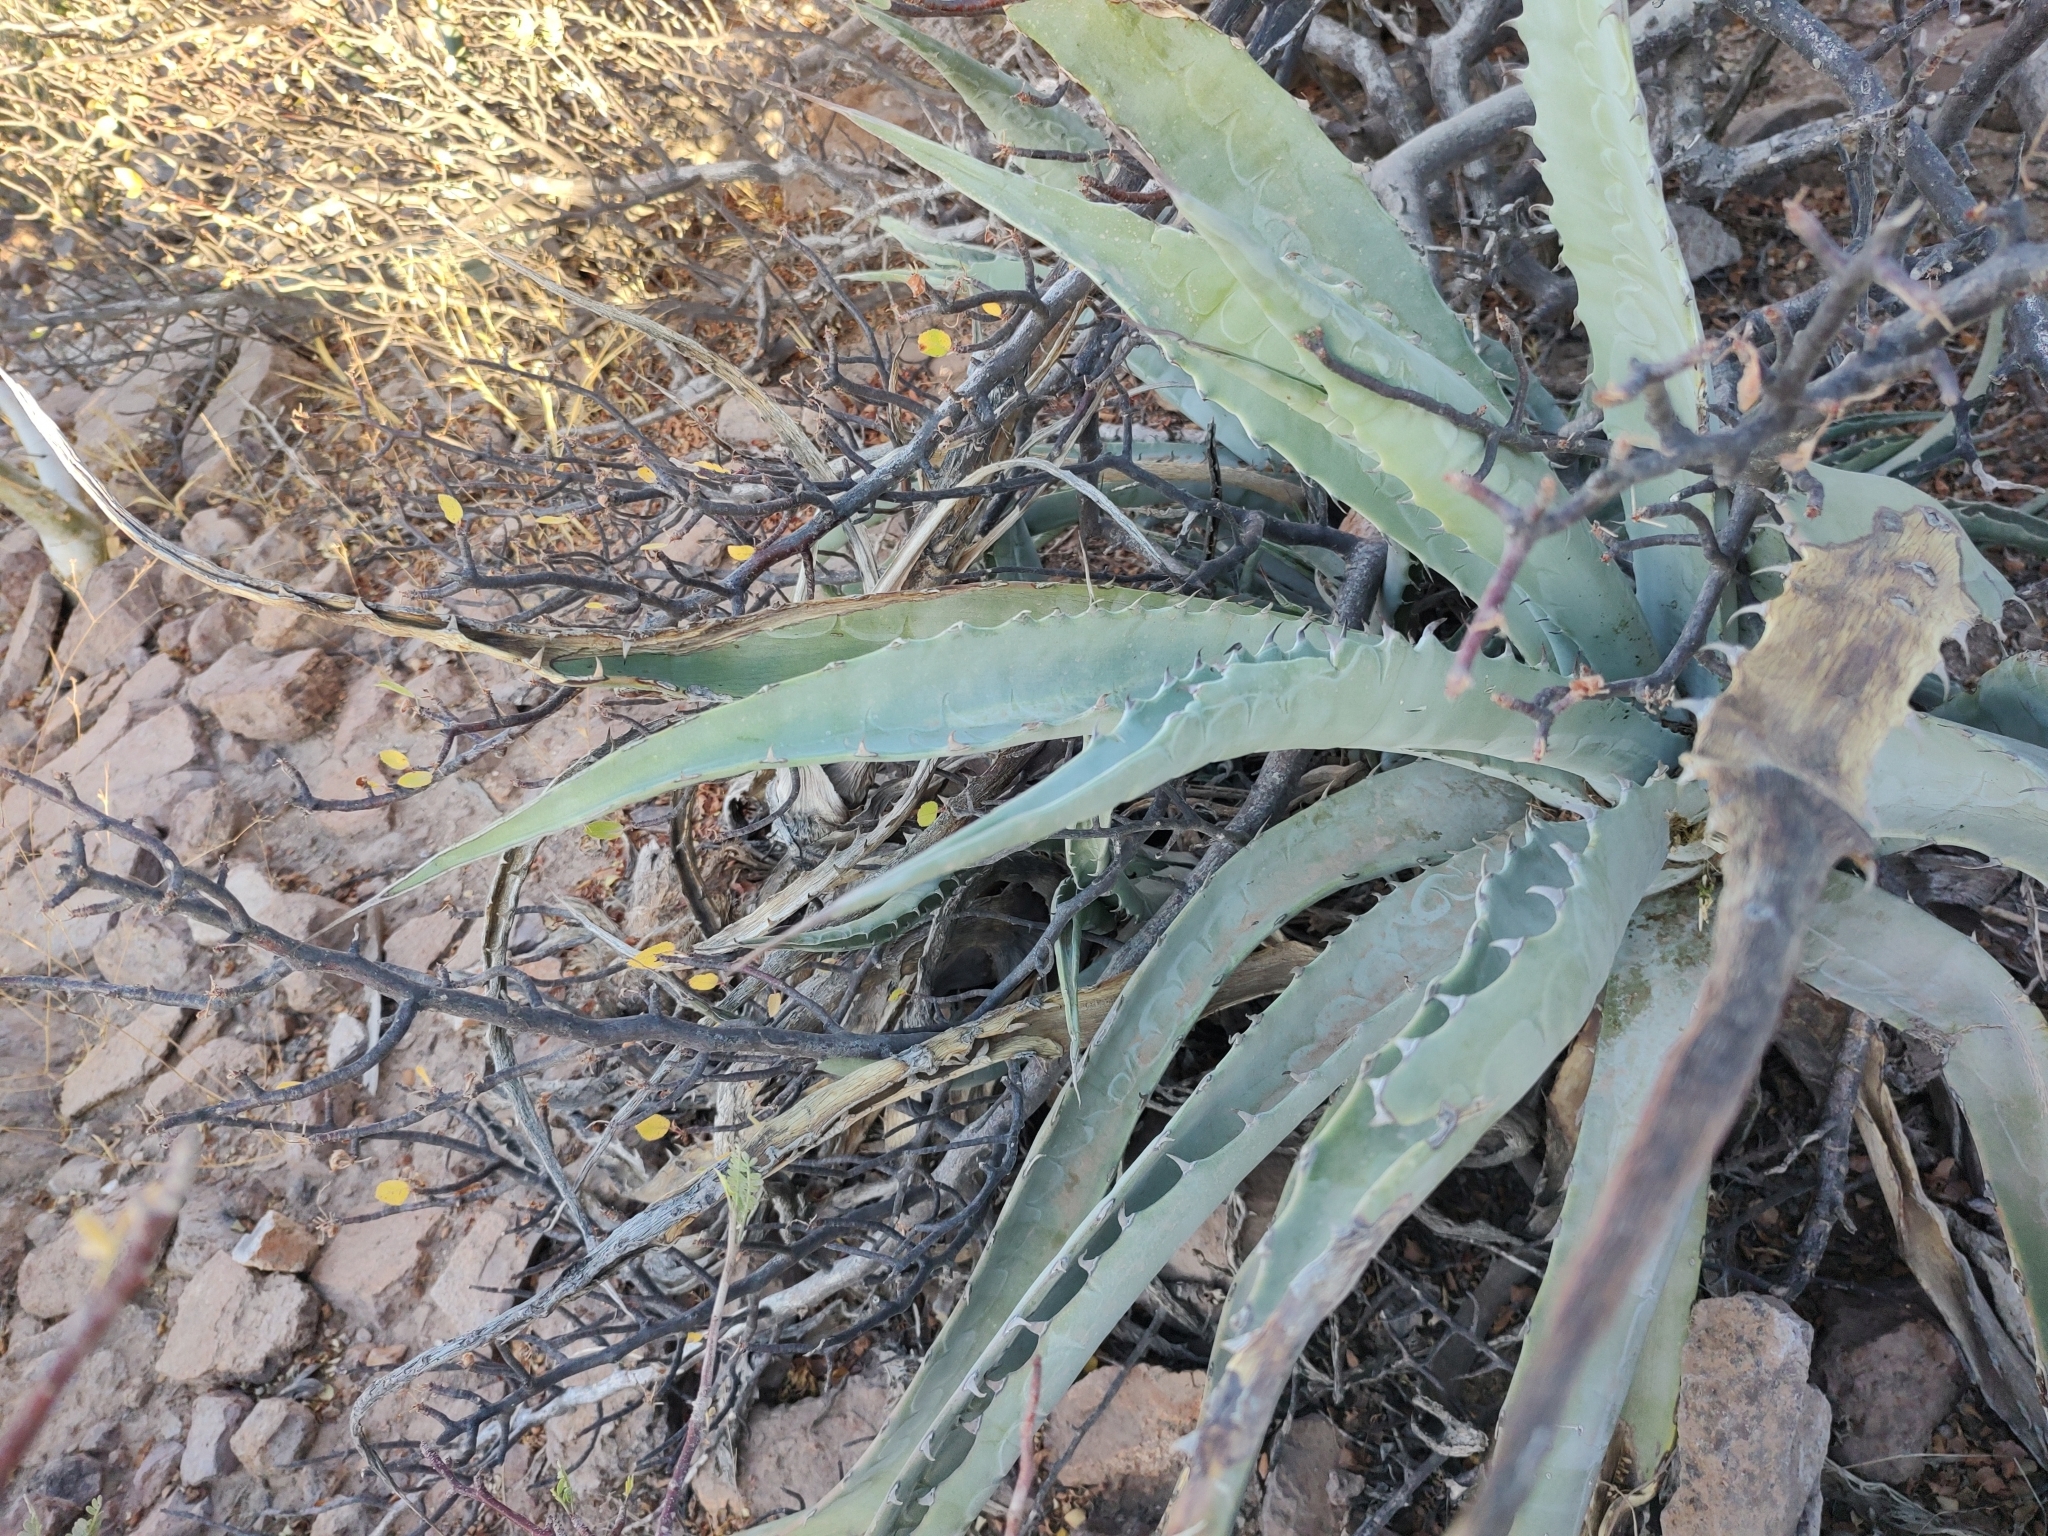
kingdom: Plantae
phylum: Tracheophyta
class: Liliopsida
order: Asparagales
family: Asparagaceae
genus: Agave
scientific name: Agave sobria
